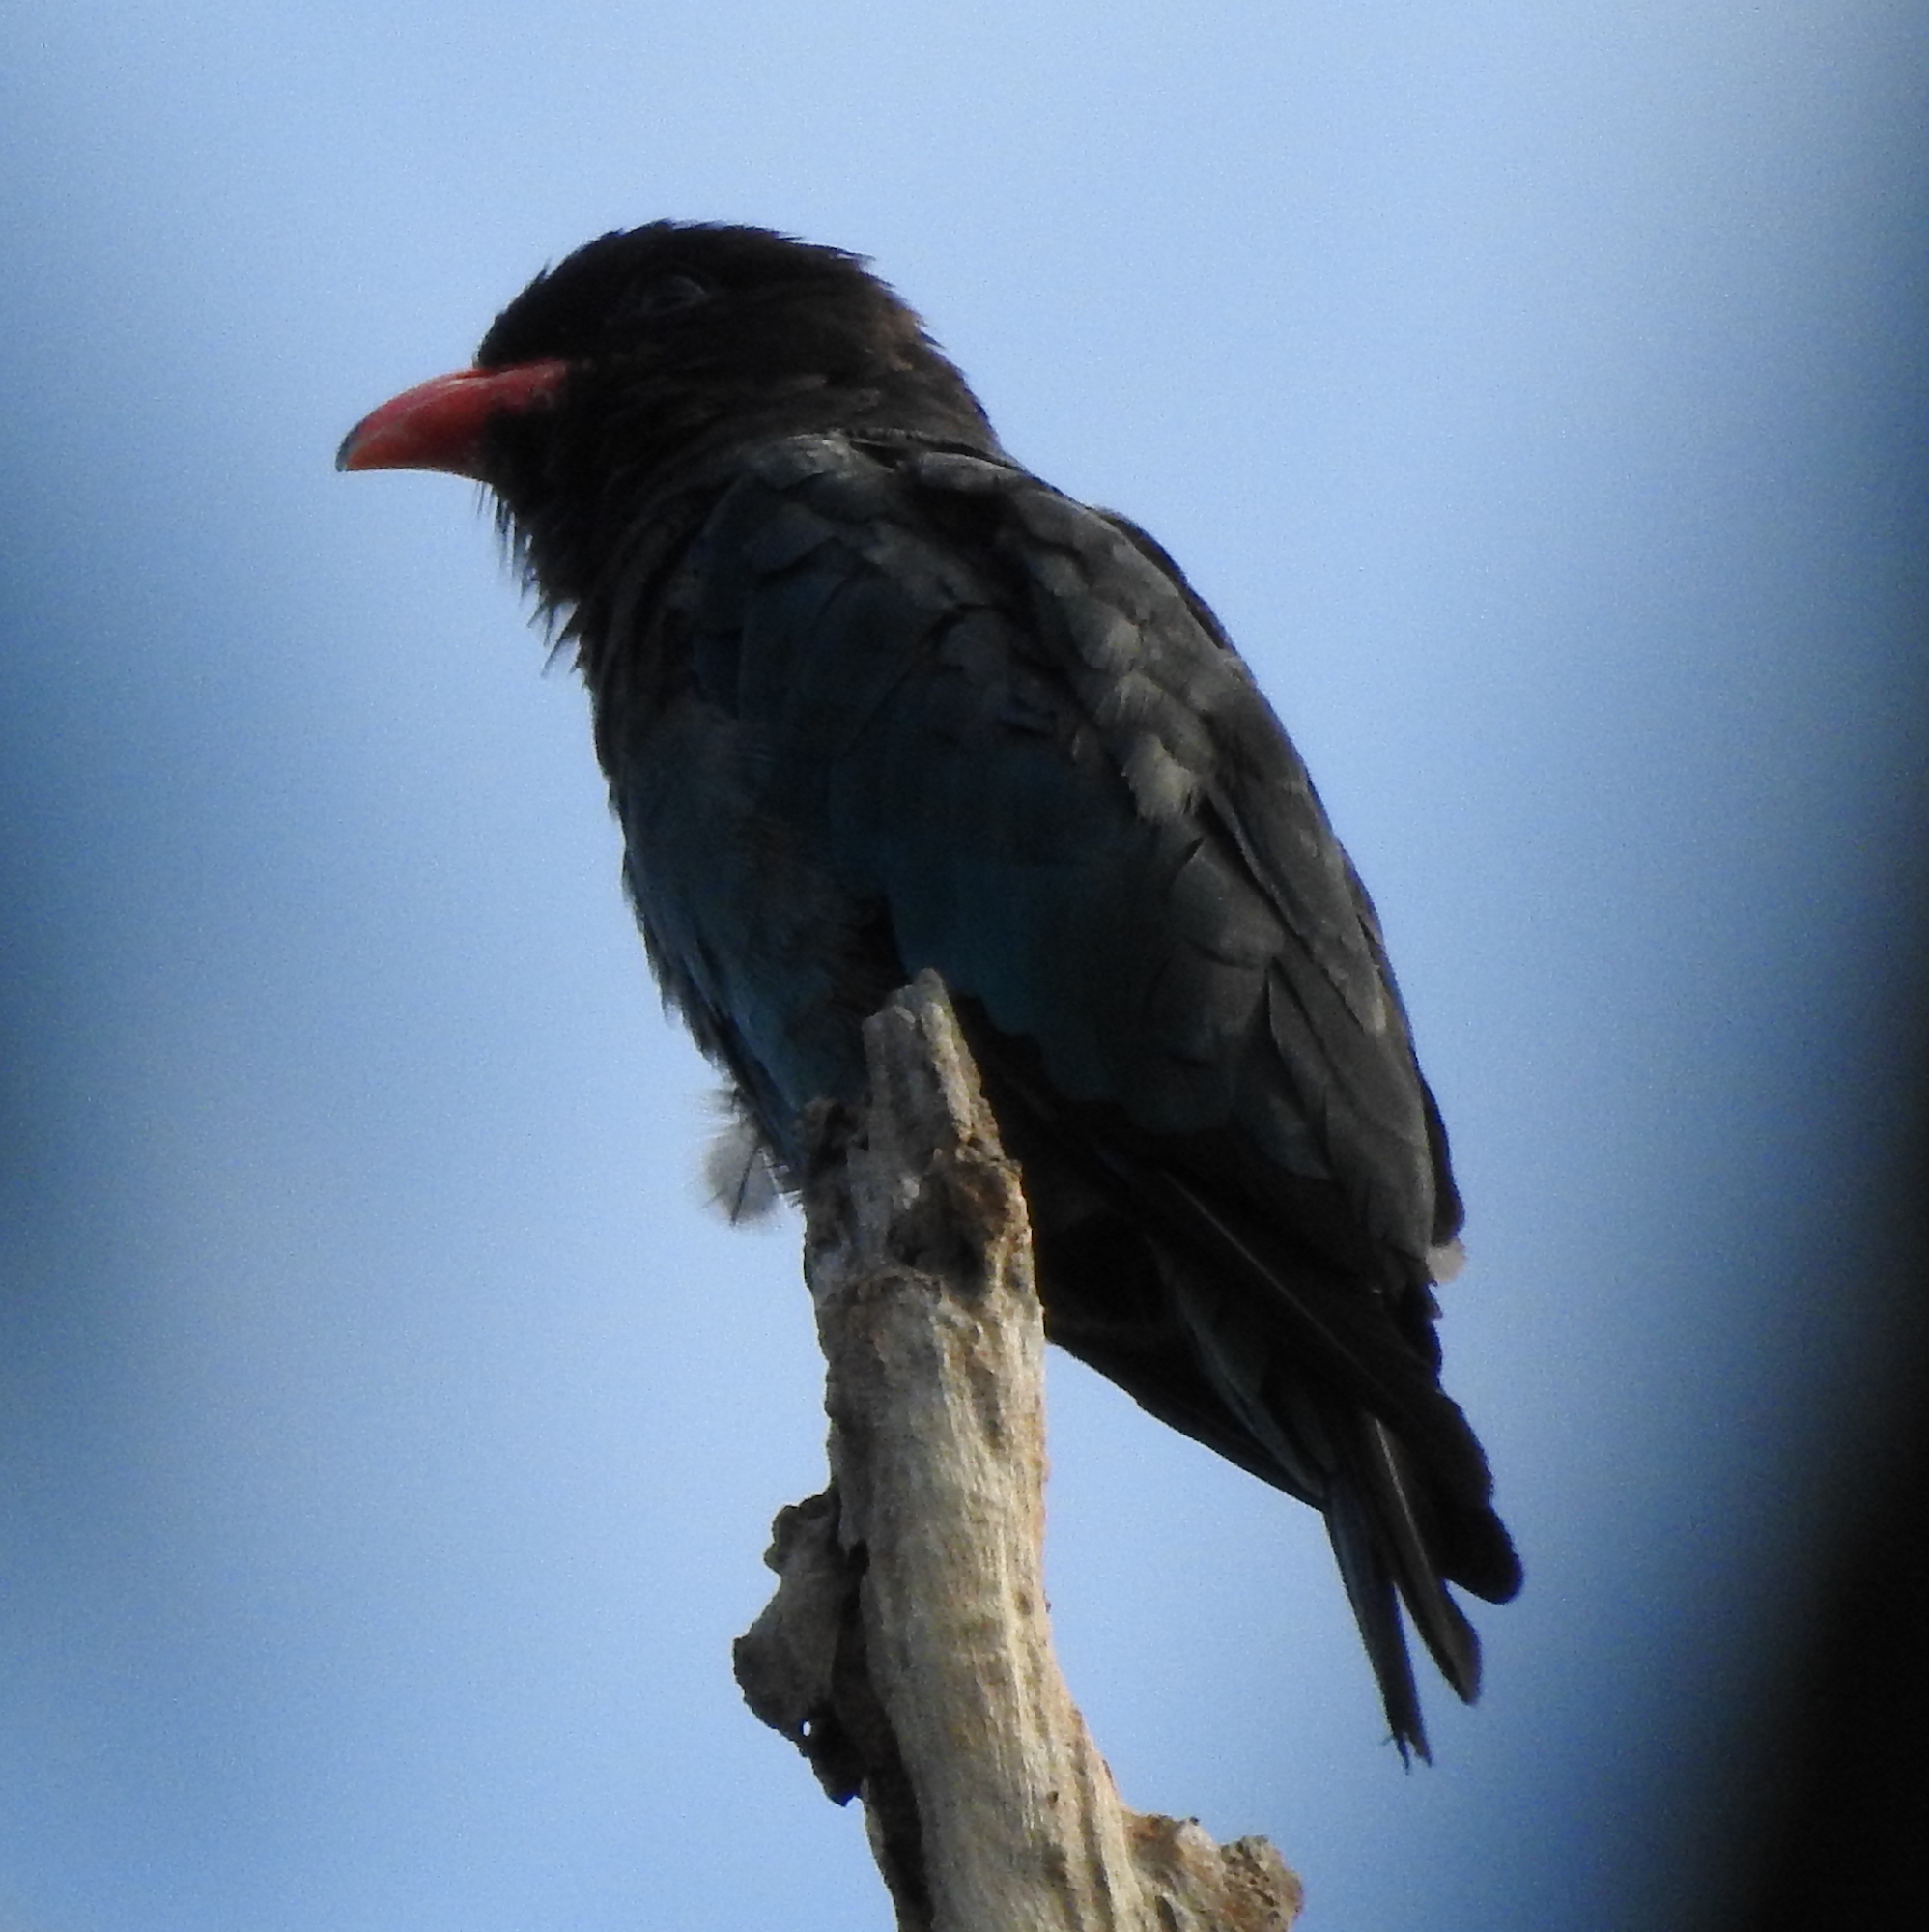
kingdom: Animalia
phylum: Chordata
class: Aves
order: Coraciiformes
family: Coraciidae
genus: Eurystomus
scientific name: Eurystomus orientalis
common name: Oriental dollarbird
